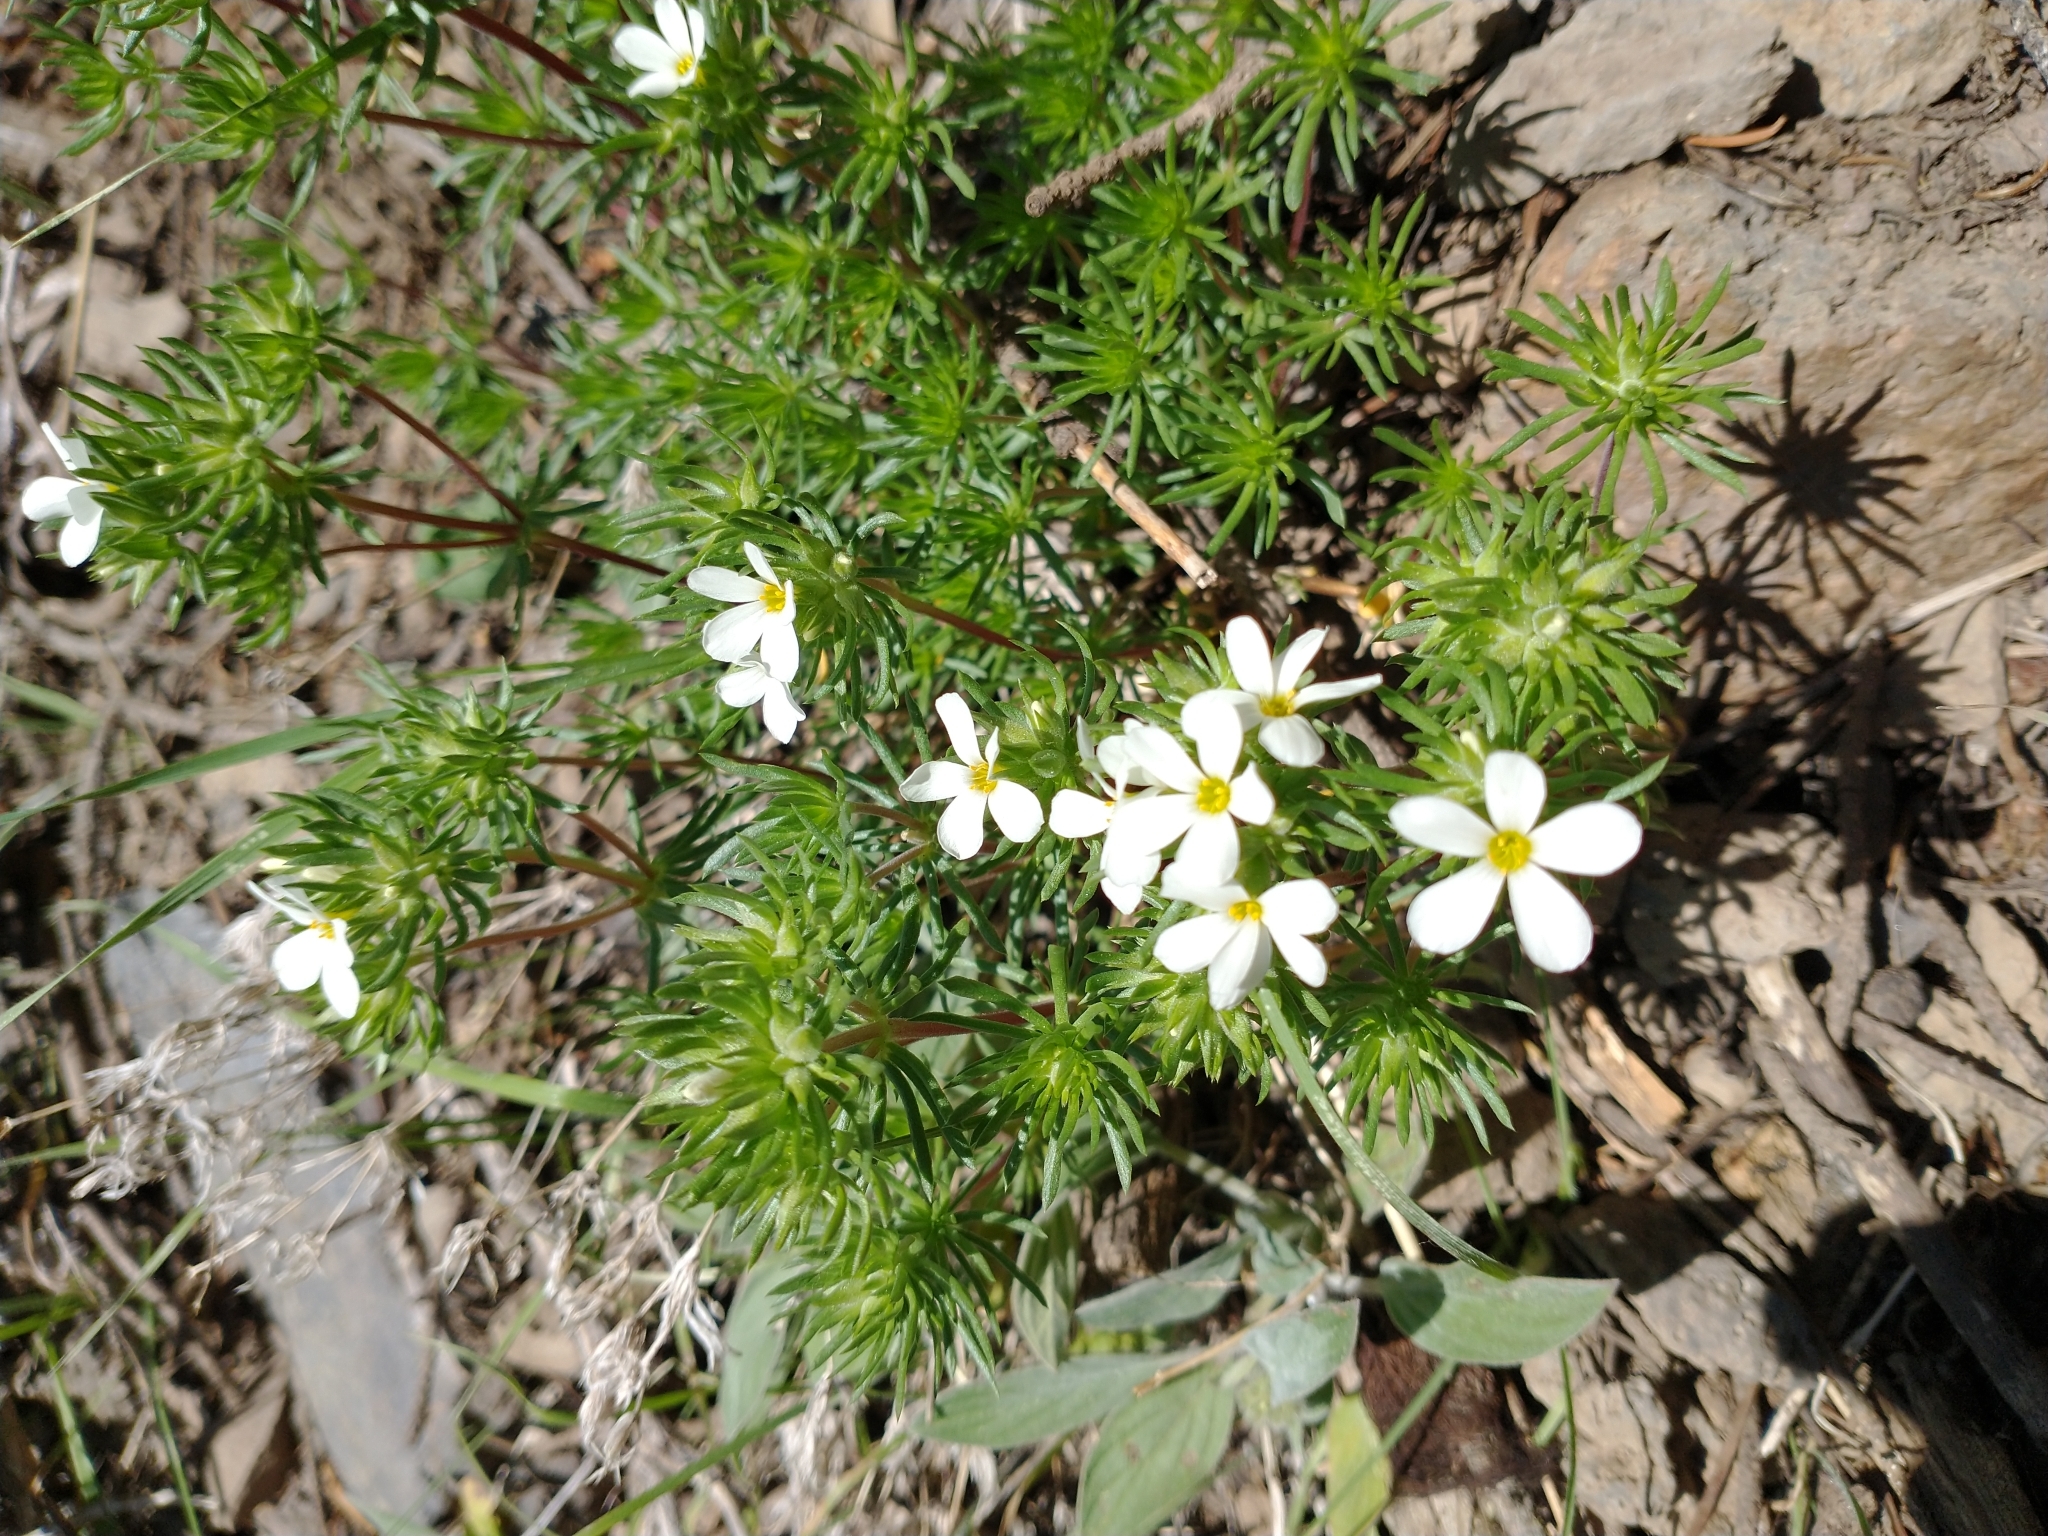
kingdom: Plantae
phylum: Tracheophyta
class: Magnoliopsida
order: Ericales
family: Polemoniaceae
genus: Leptosiphon
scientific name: Leptosiphon nuttallii
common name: Nuttall's linanthus
